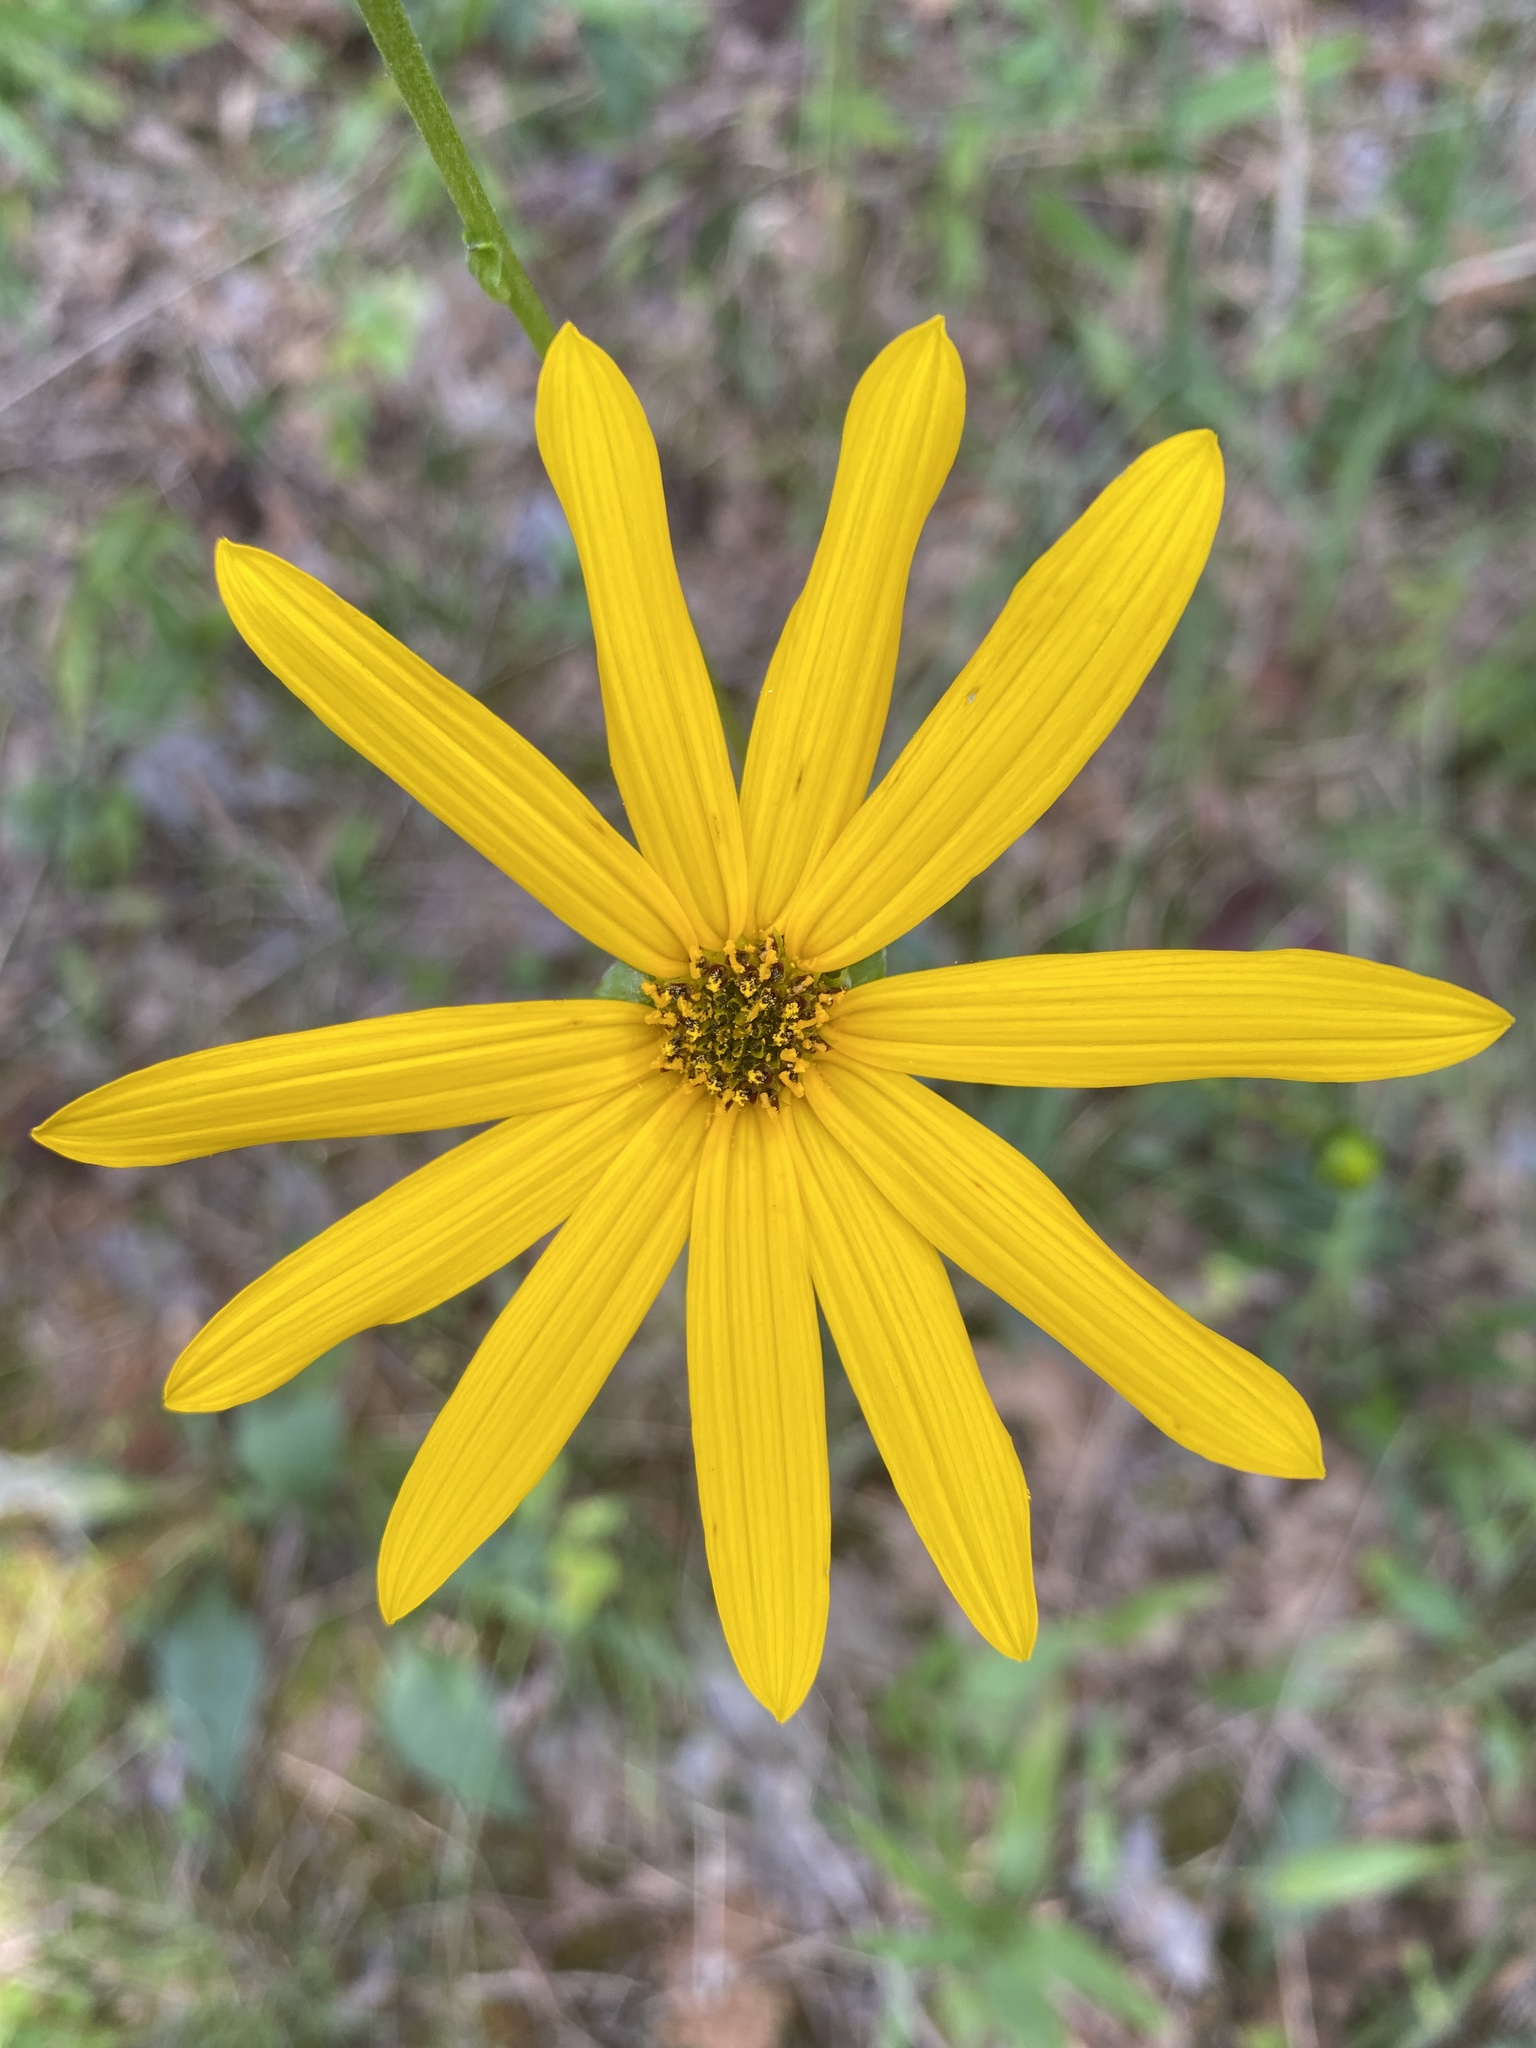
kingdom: Plantae
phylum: Tracheophyta
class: Magnoliopsida
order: Asterales
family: Asteraceae
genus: Helianthus
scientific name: Helianthus atrorubens
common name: Dark-eyed sunflower
